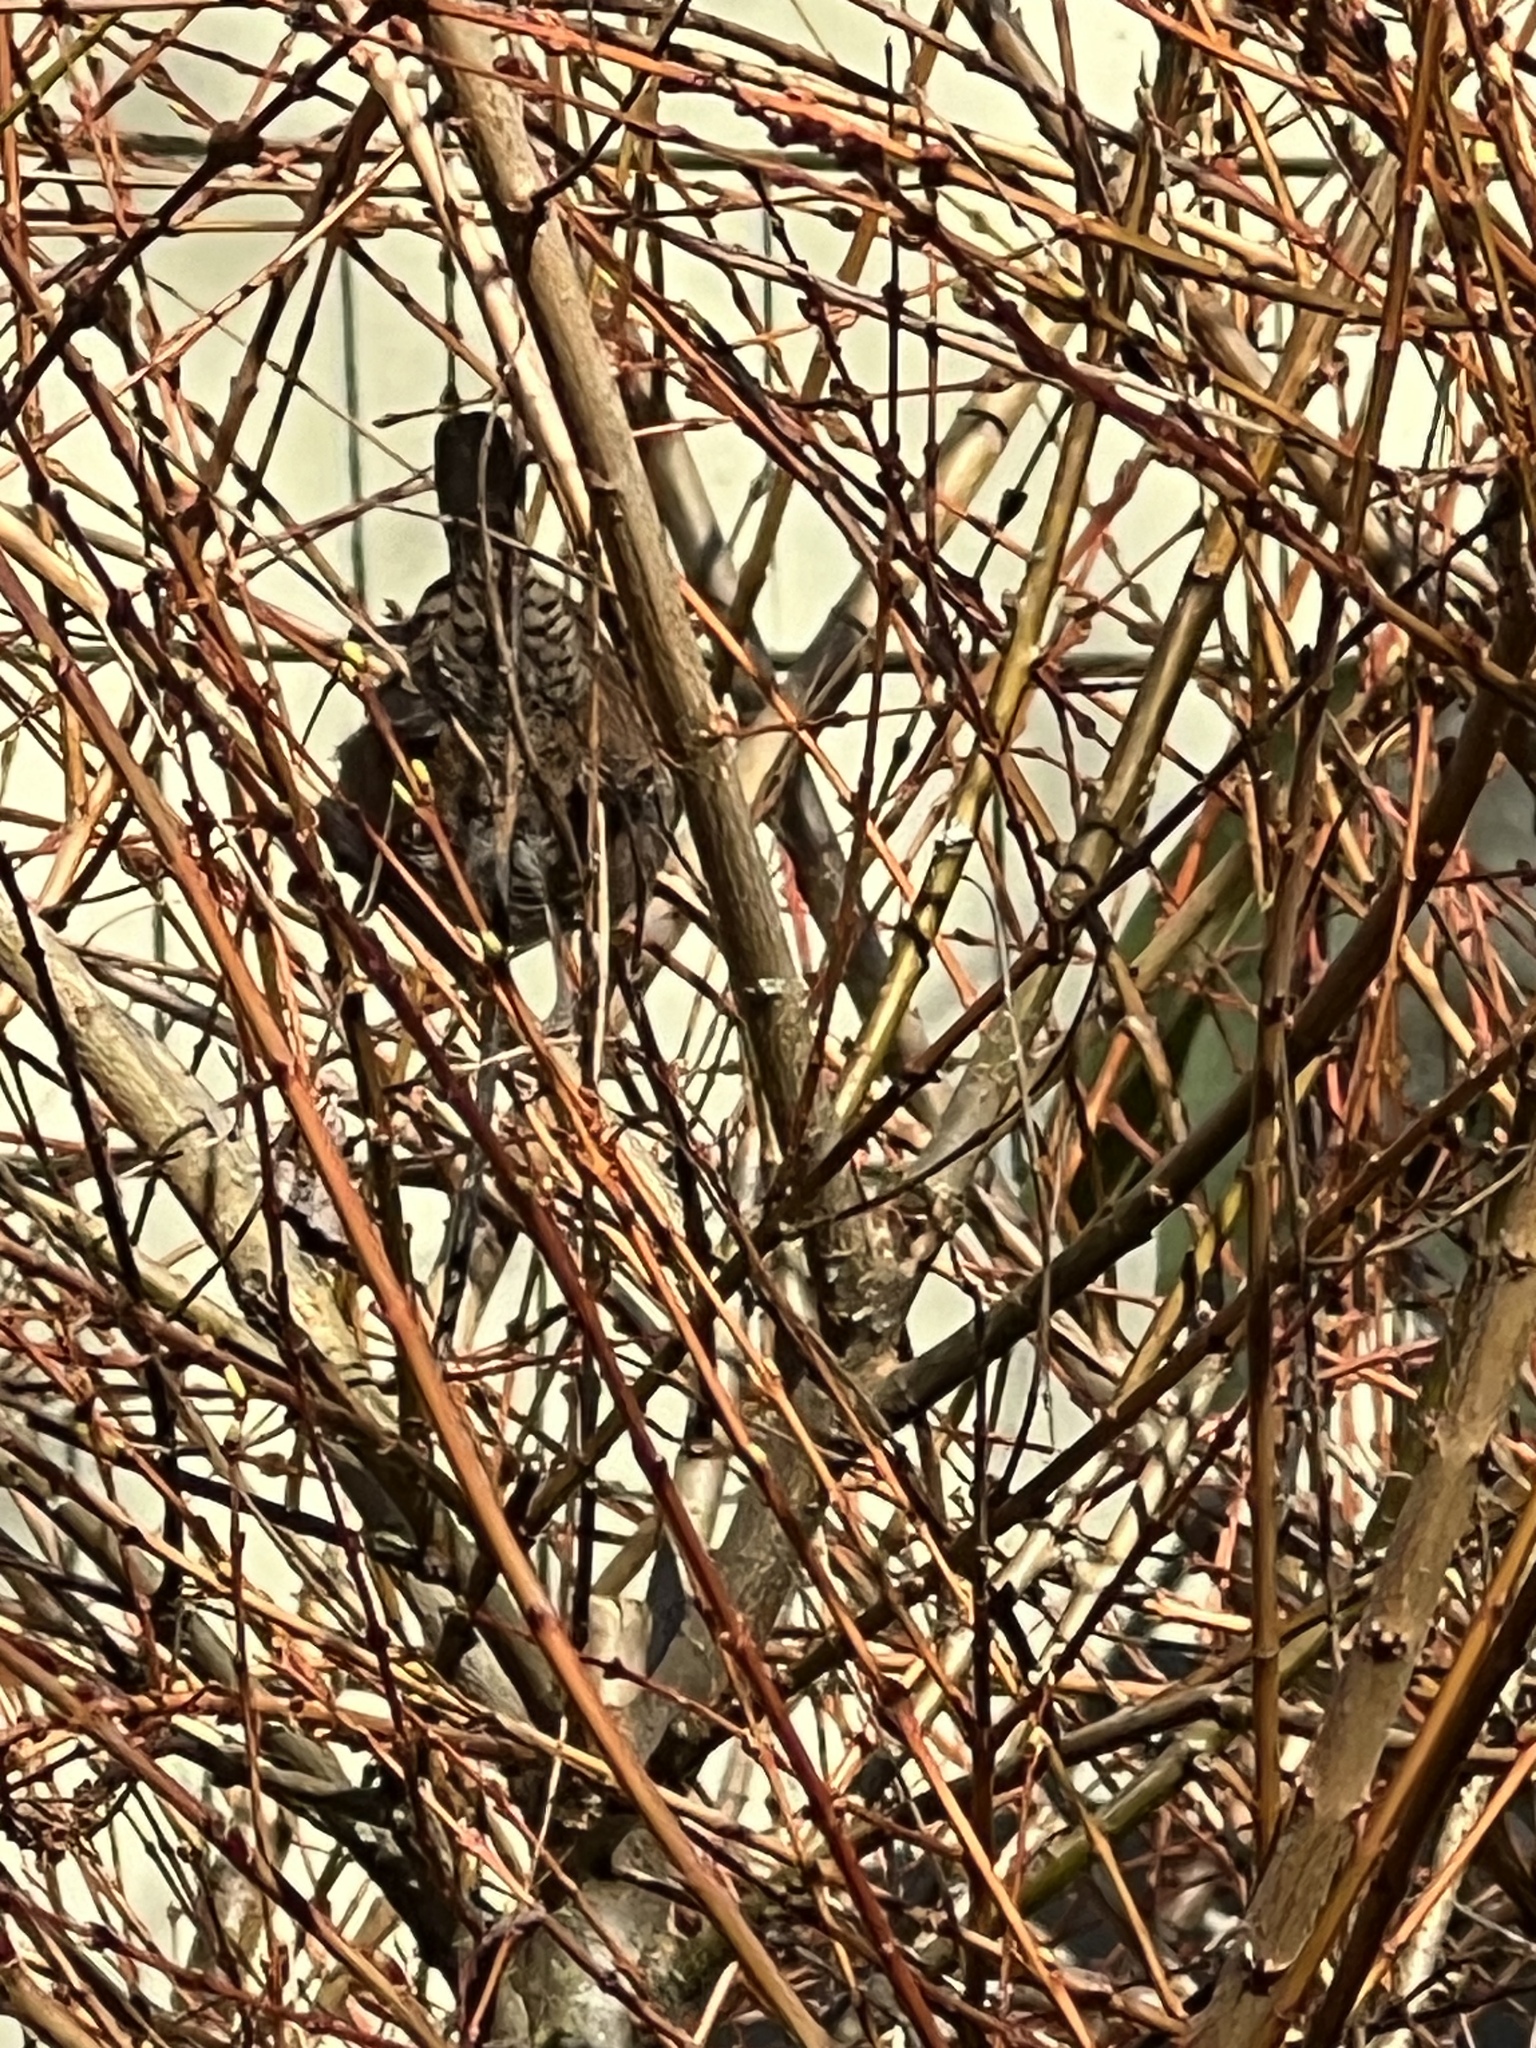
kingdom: Animalia
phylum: Chordata
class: Aves
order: Passeriformes
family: Troglodytidae
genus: Thryomanes
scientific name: Thryomanes bewickii
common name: Bewick's wren
